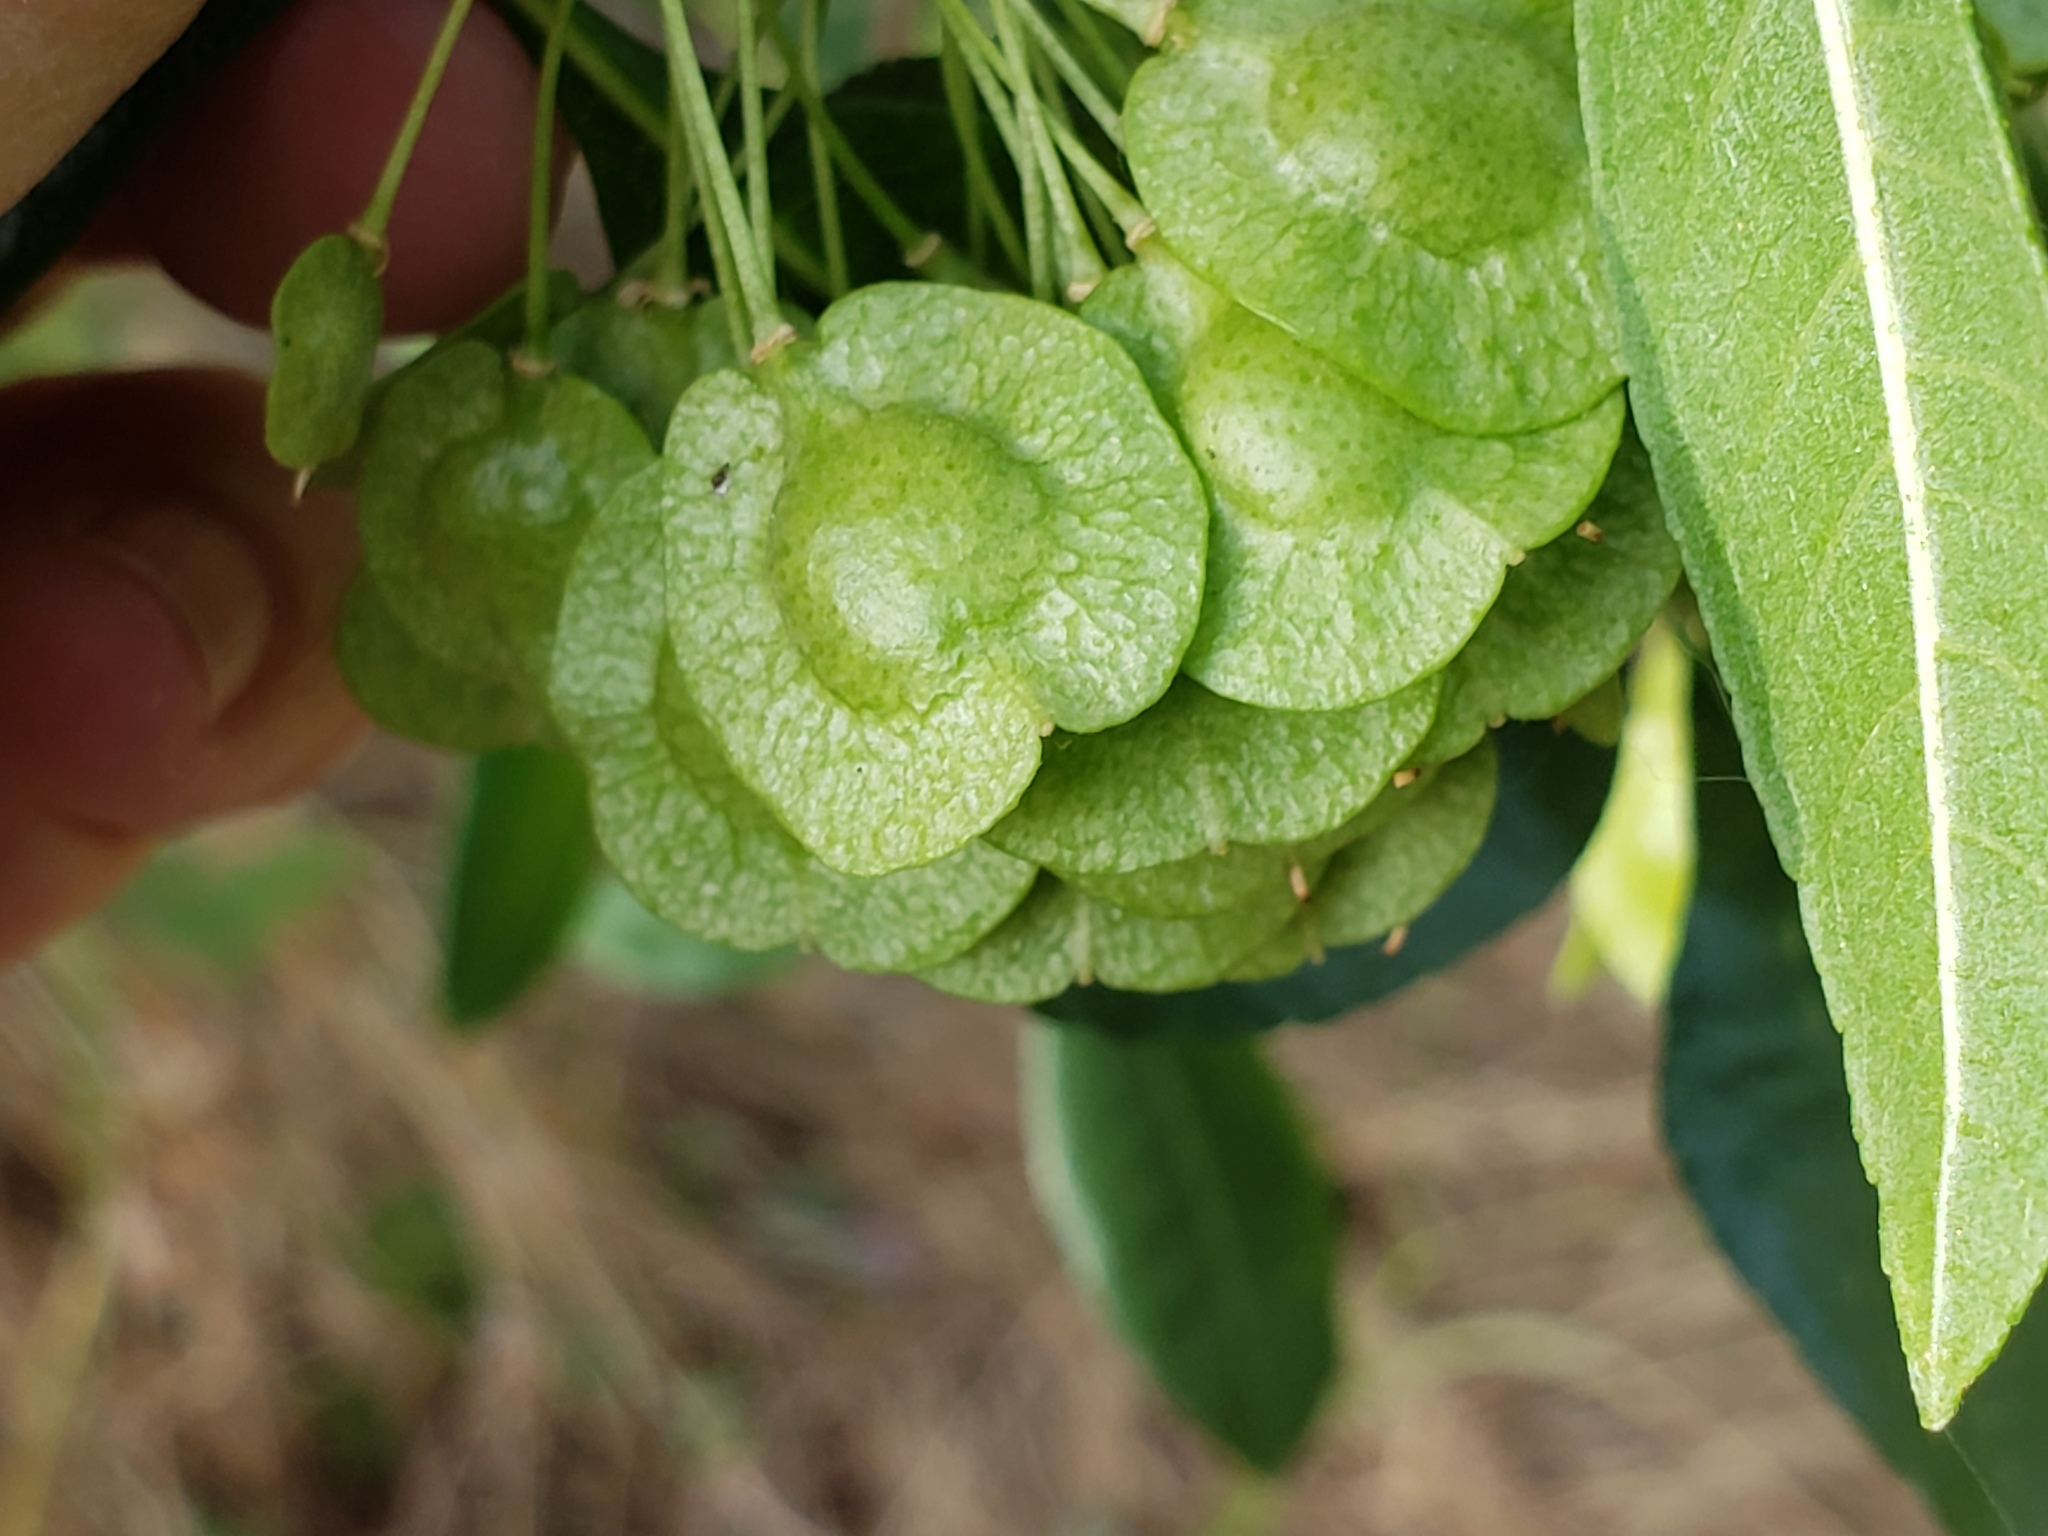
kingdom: Plantae
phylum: Tracheophyta
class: Magnoliopsida
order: Sapindales
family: Rutaceae
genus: Ptelea
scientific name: Ptelea crenulata
